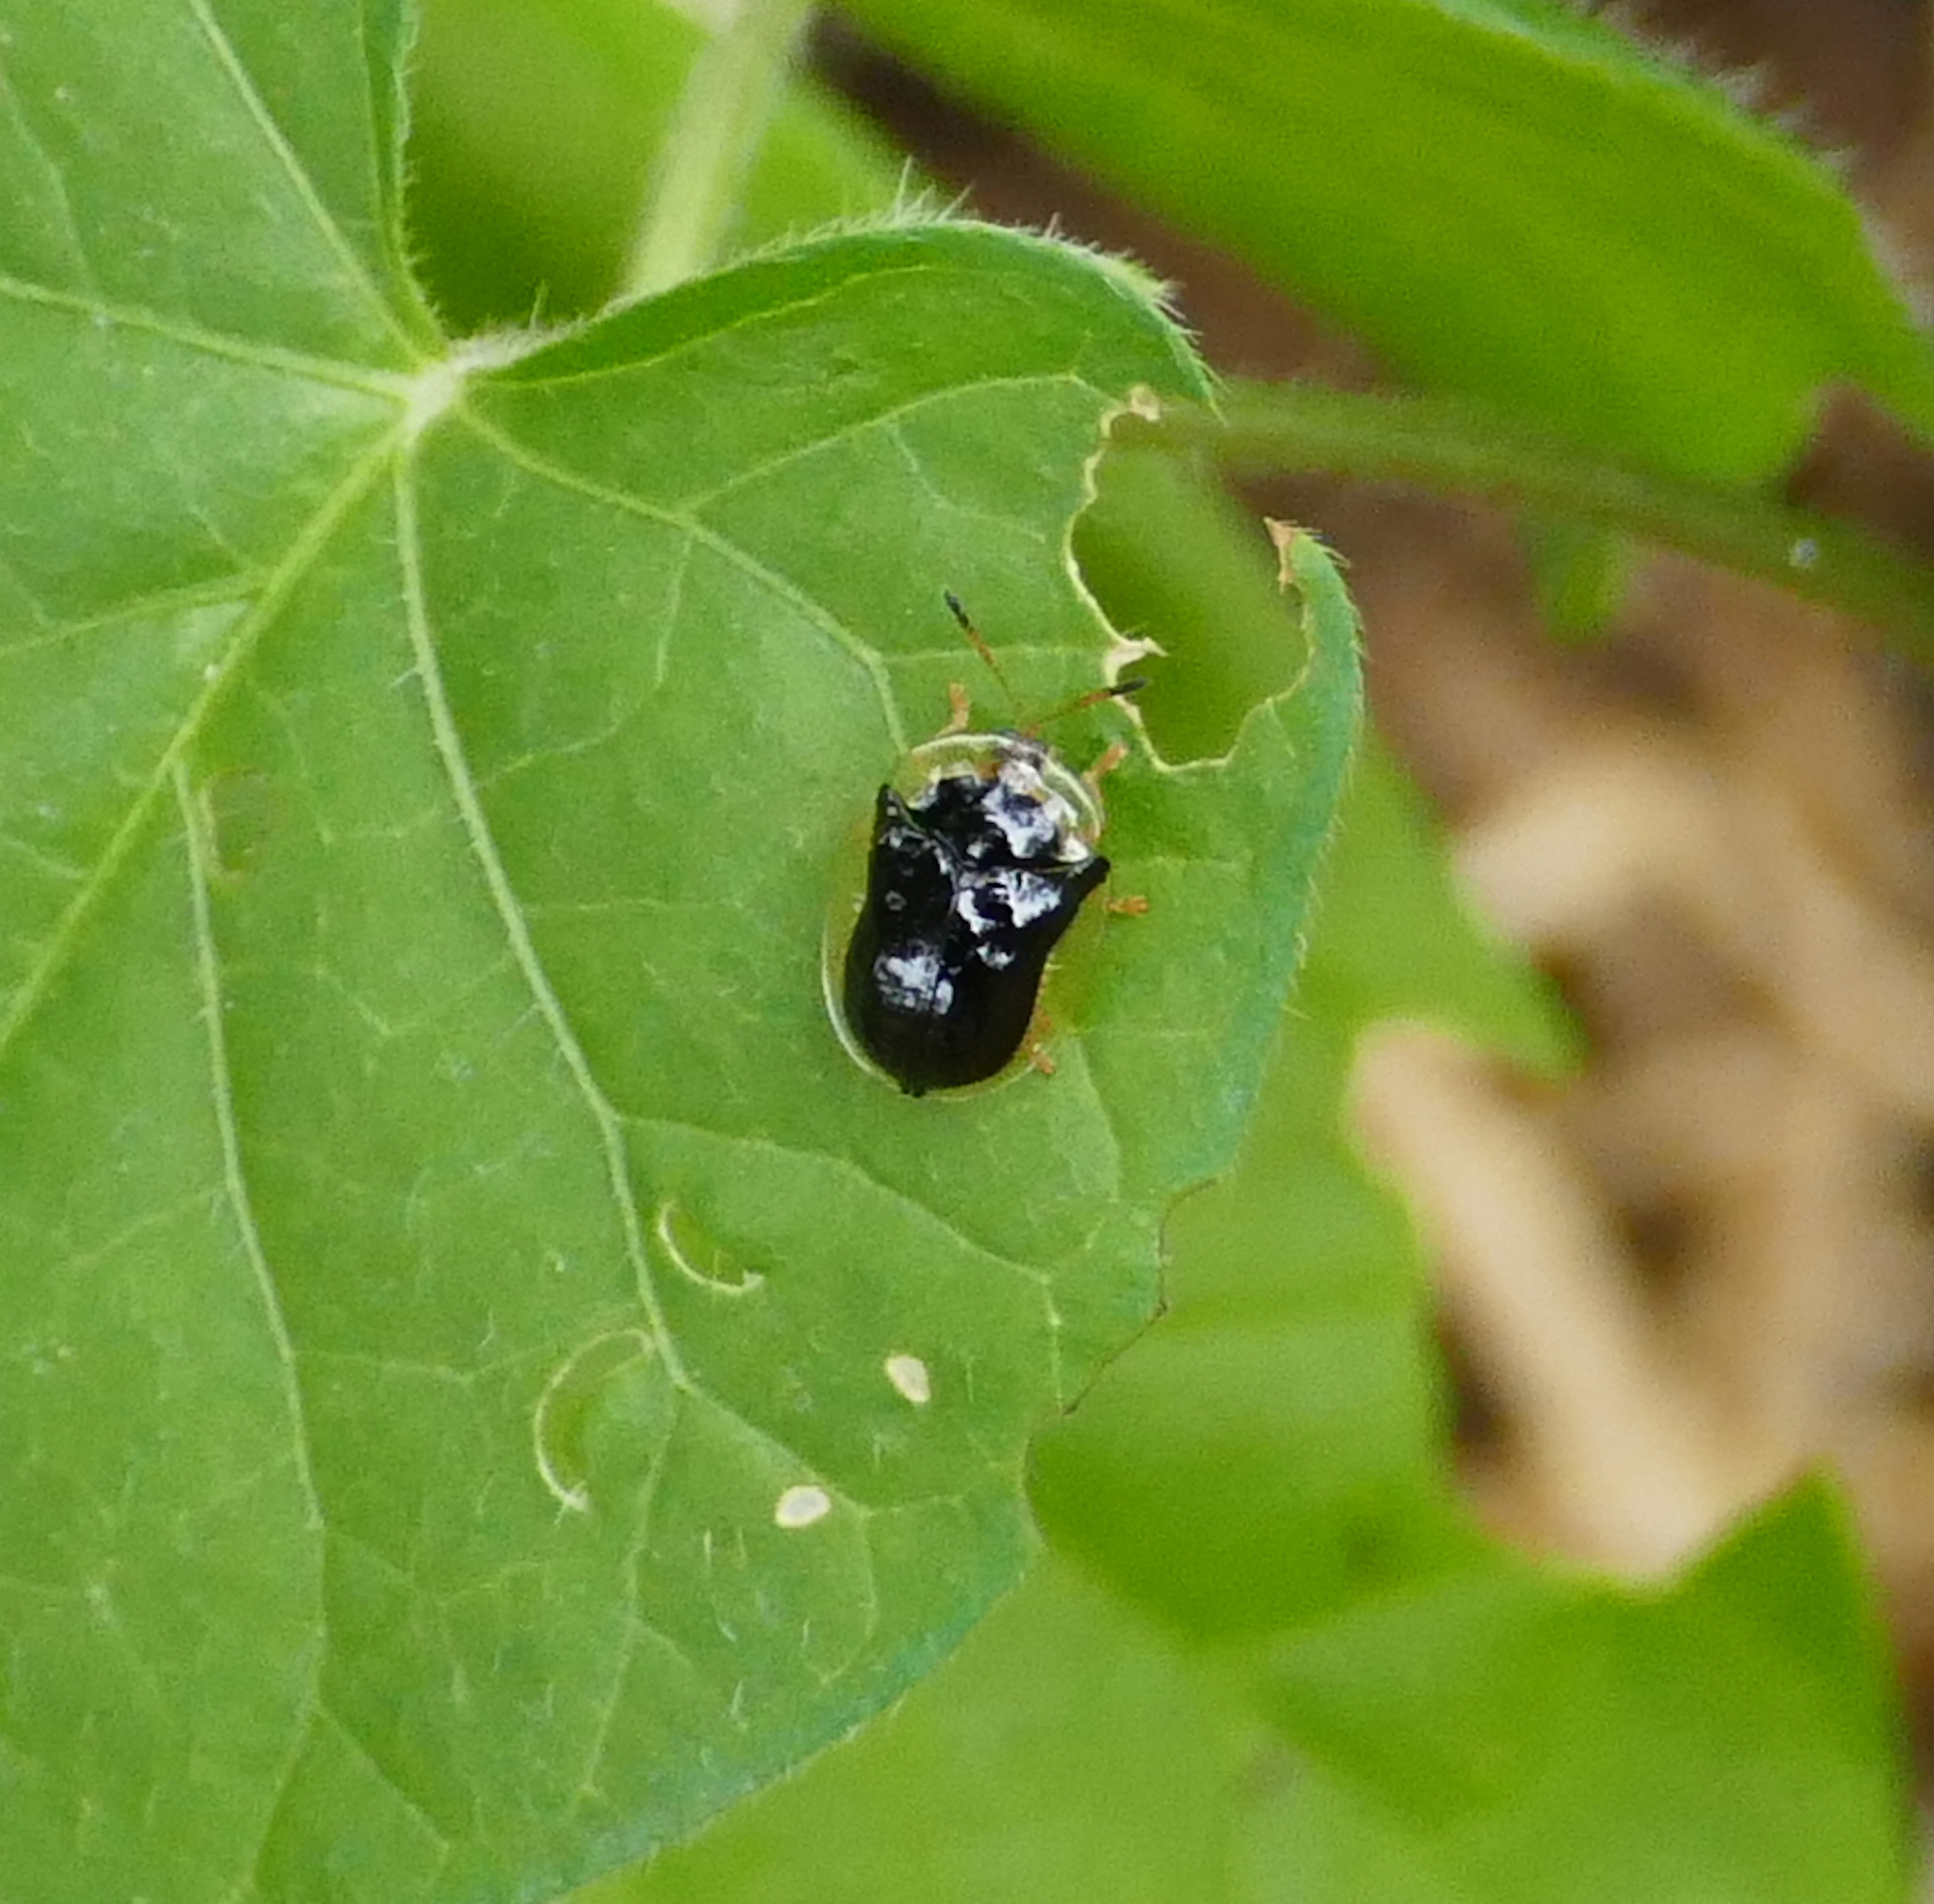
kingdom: Animalia
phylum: Arthropoda
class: Insecta
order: Coleoptera
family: Chrysomelidae
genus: Deloyala
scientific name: Deloyala lecontei
